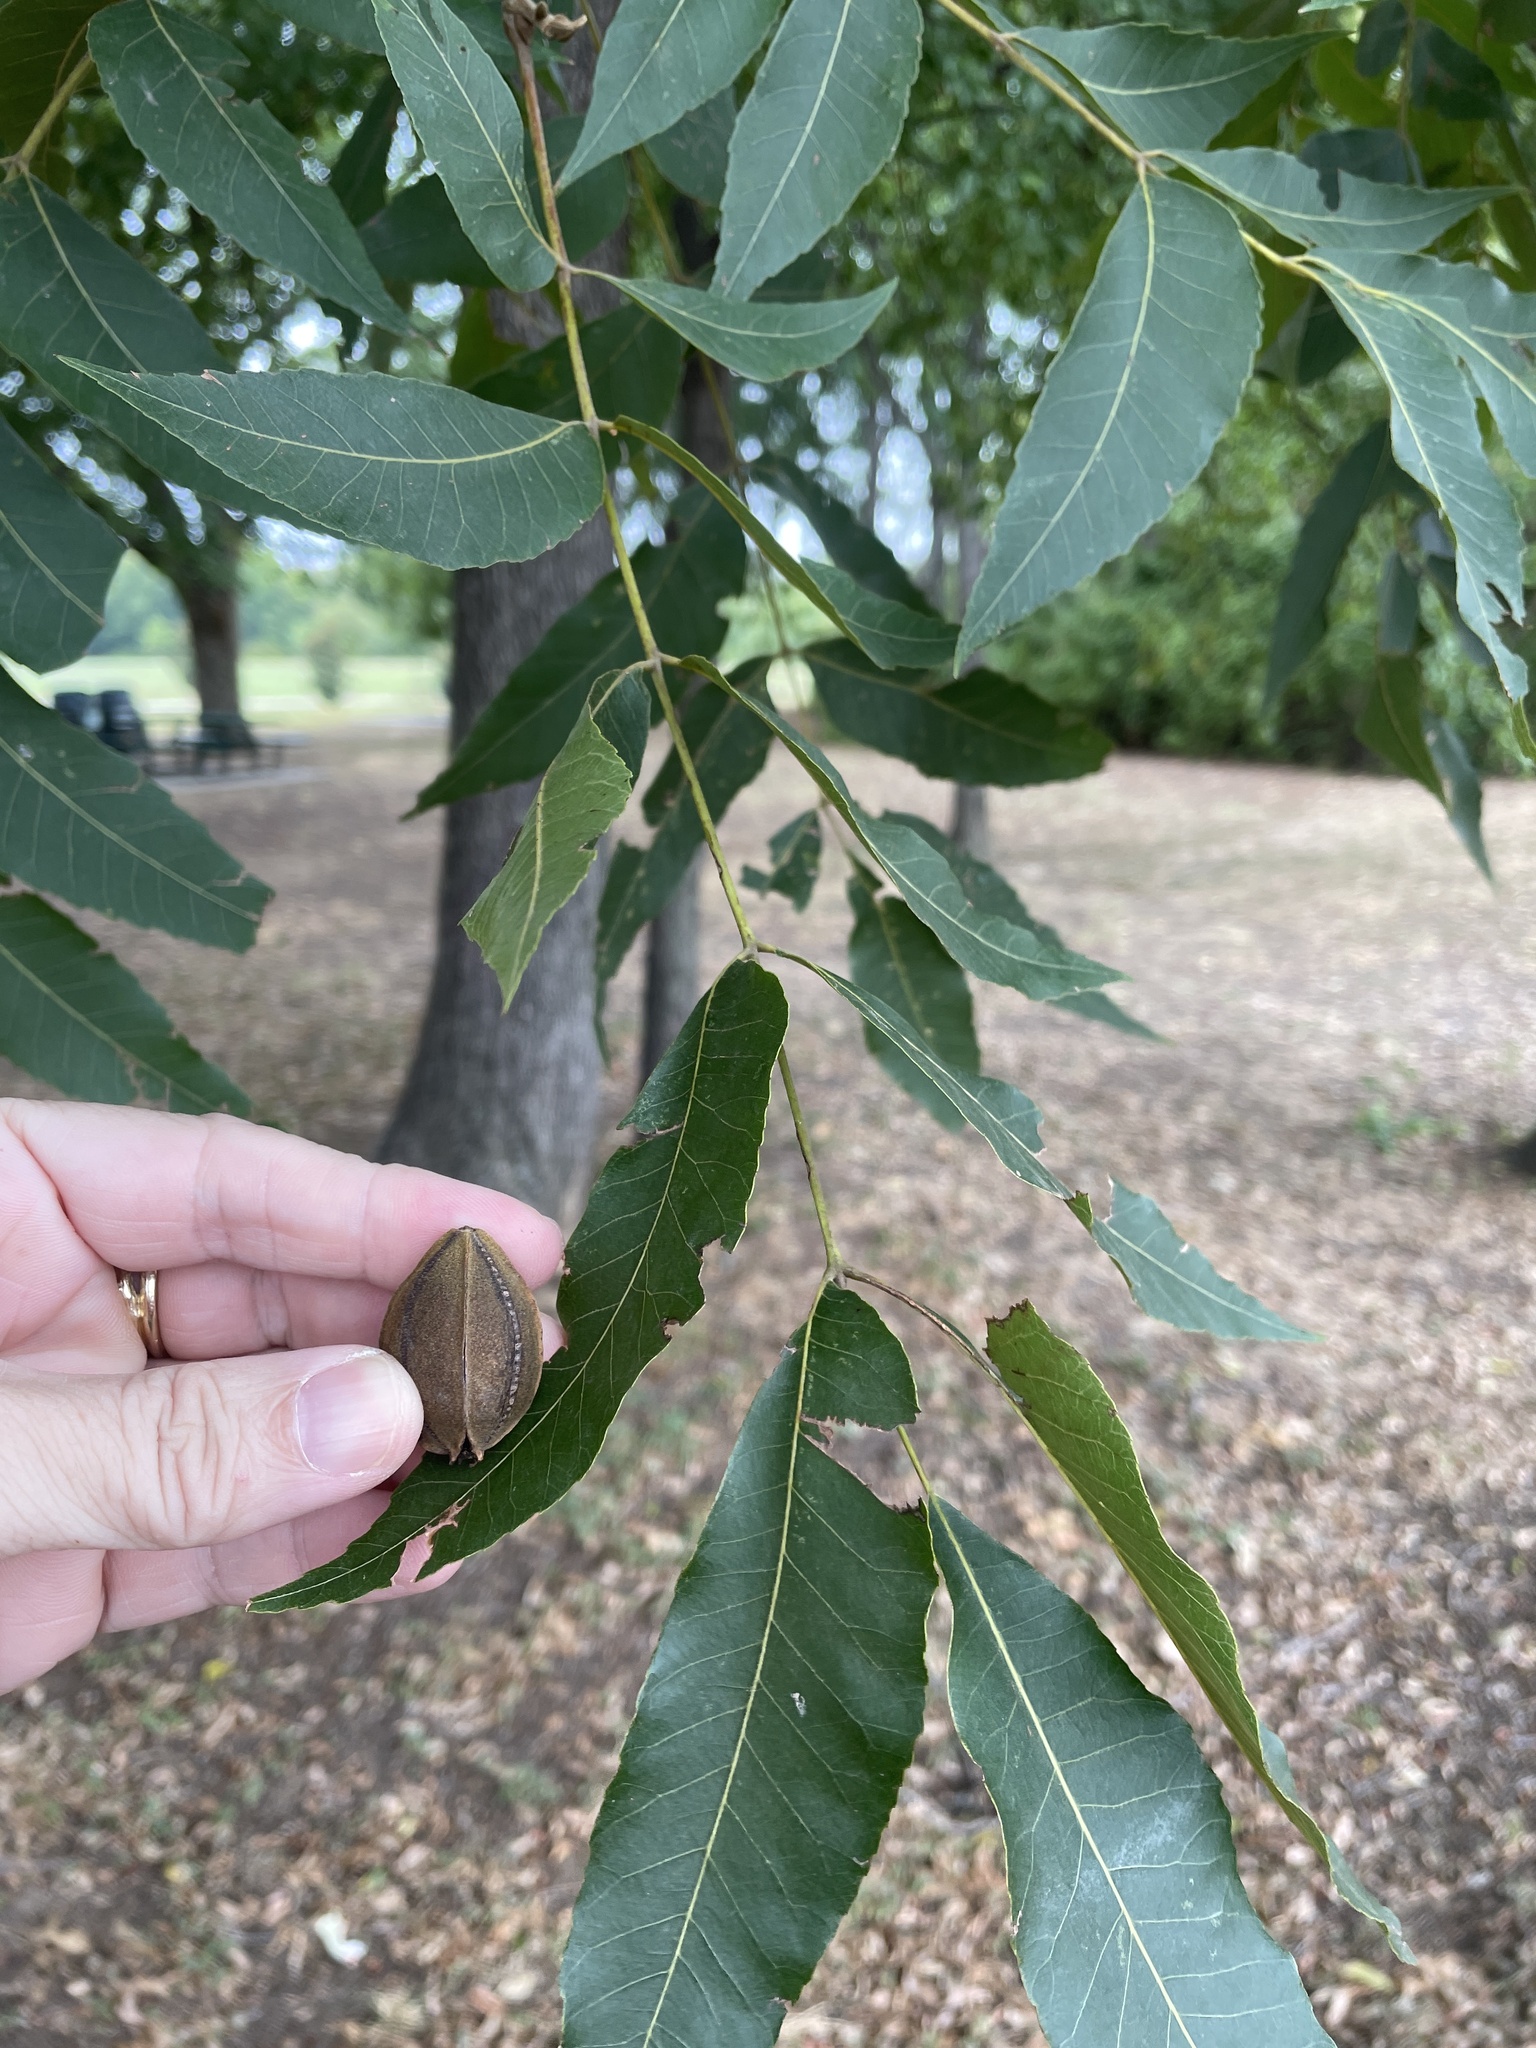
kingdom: Plantae
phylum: Tracheophyta
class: Magnoliopsida
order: Fagales
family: Juglandaceae
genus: Carya
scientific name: Carya illinoinensis
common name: Pecan
